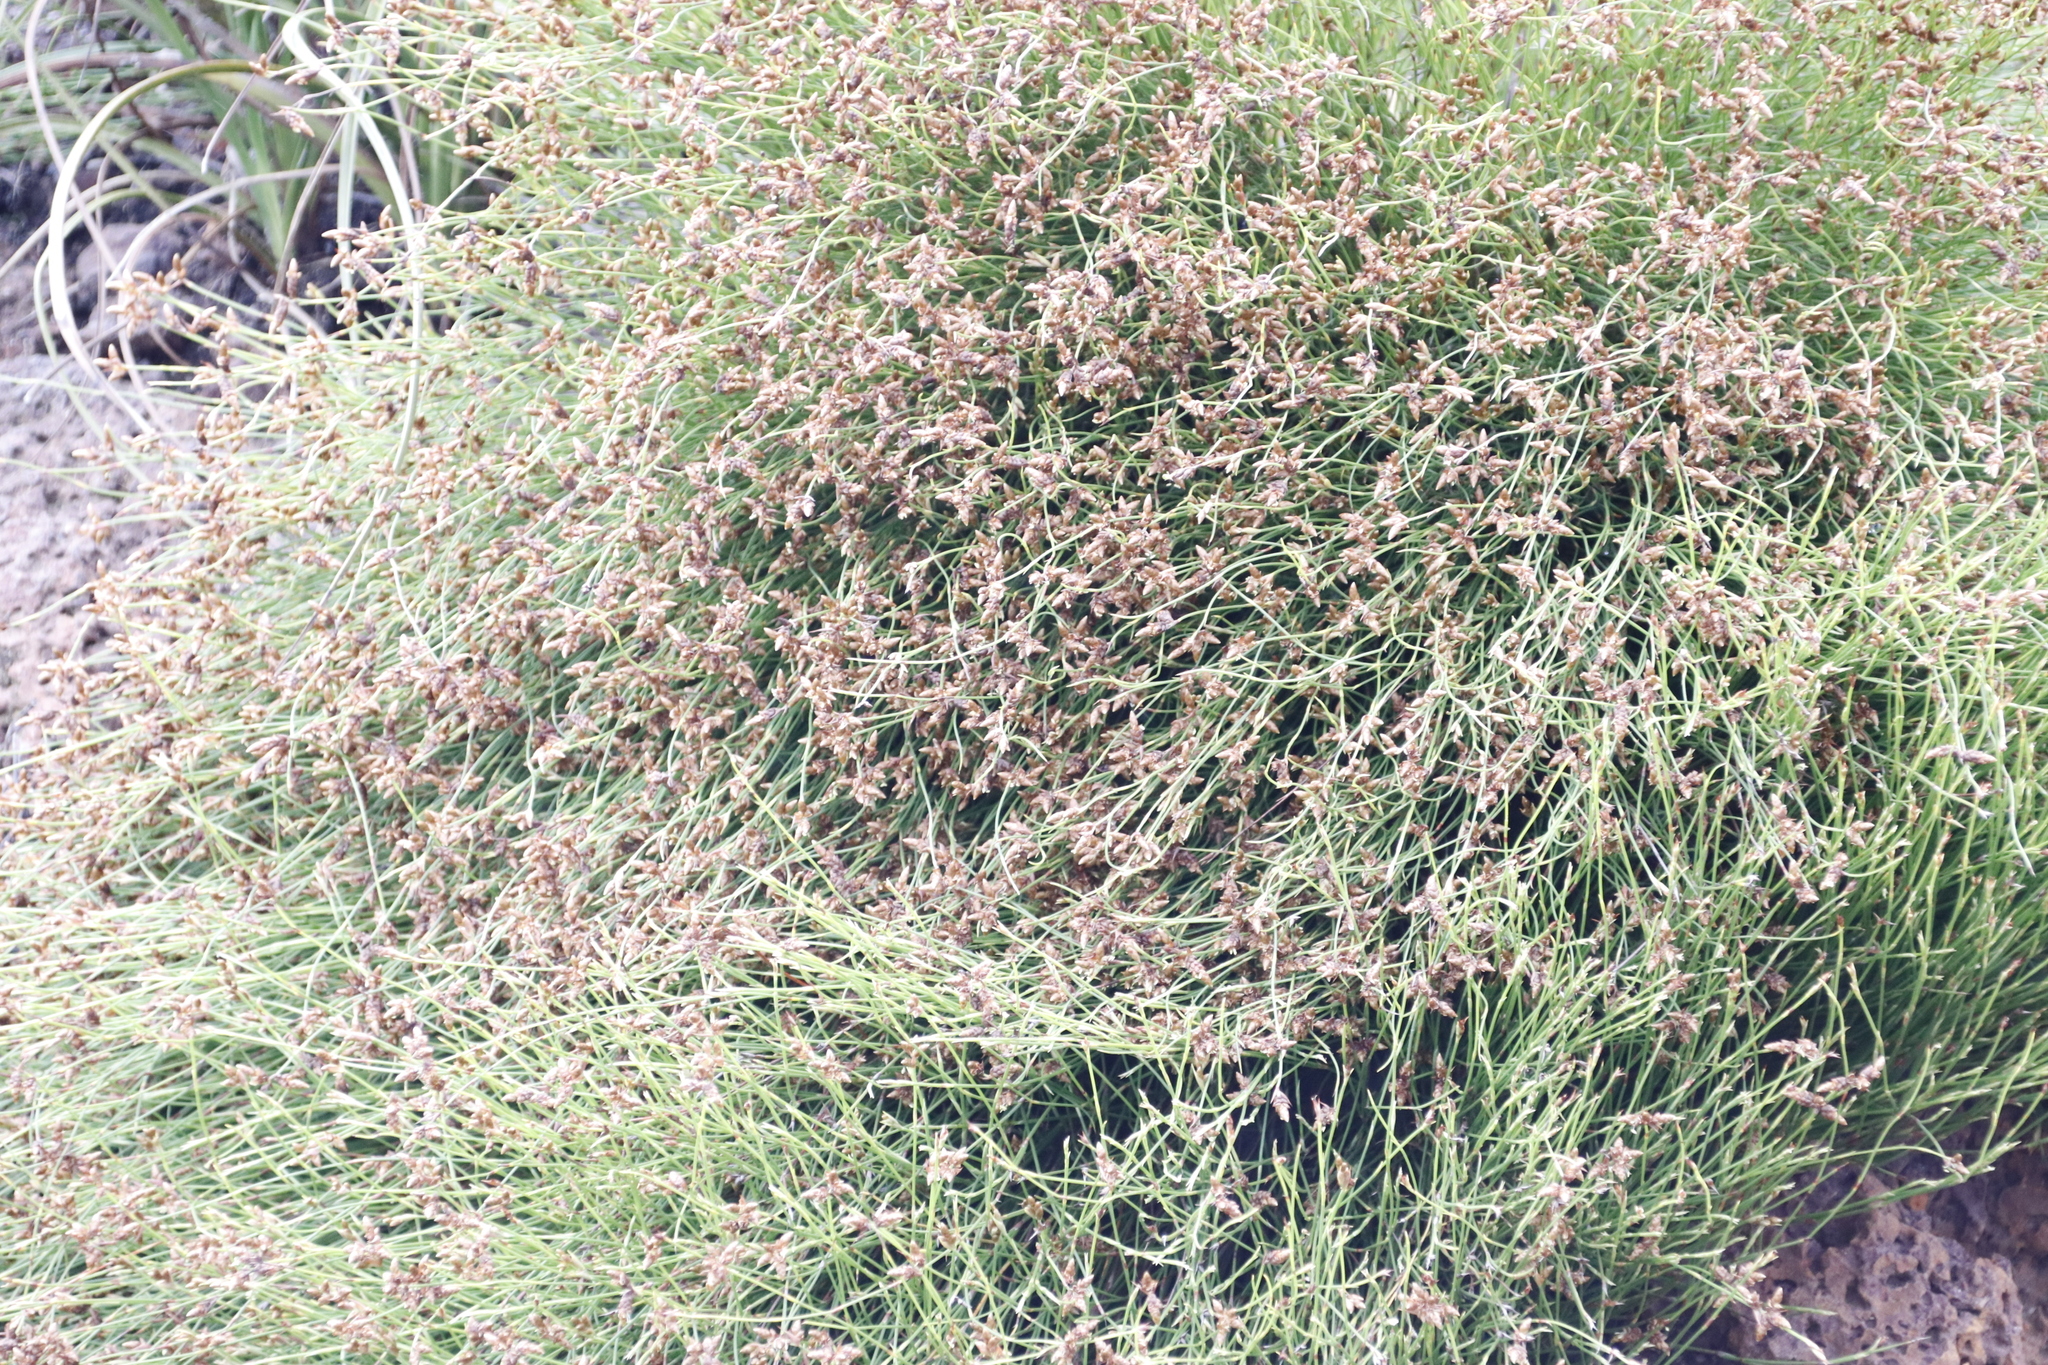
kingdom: Plantae
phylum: Tracheophyta
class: Liliopsida
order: Poales
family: Restionaceae
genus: Mastersiella
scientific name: Mastersiella digitata
